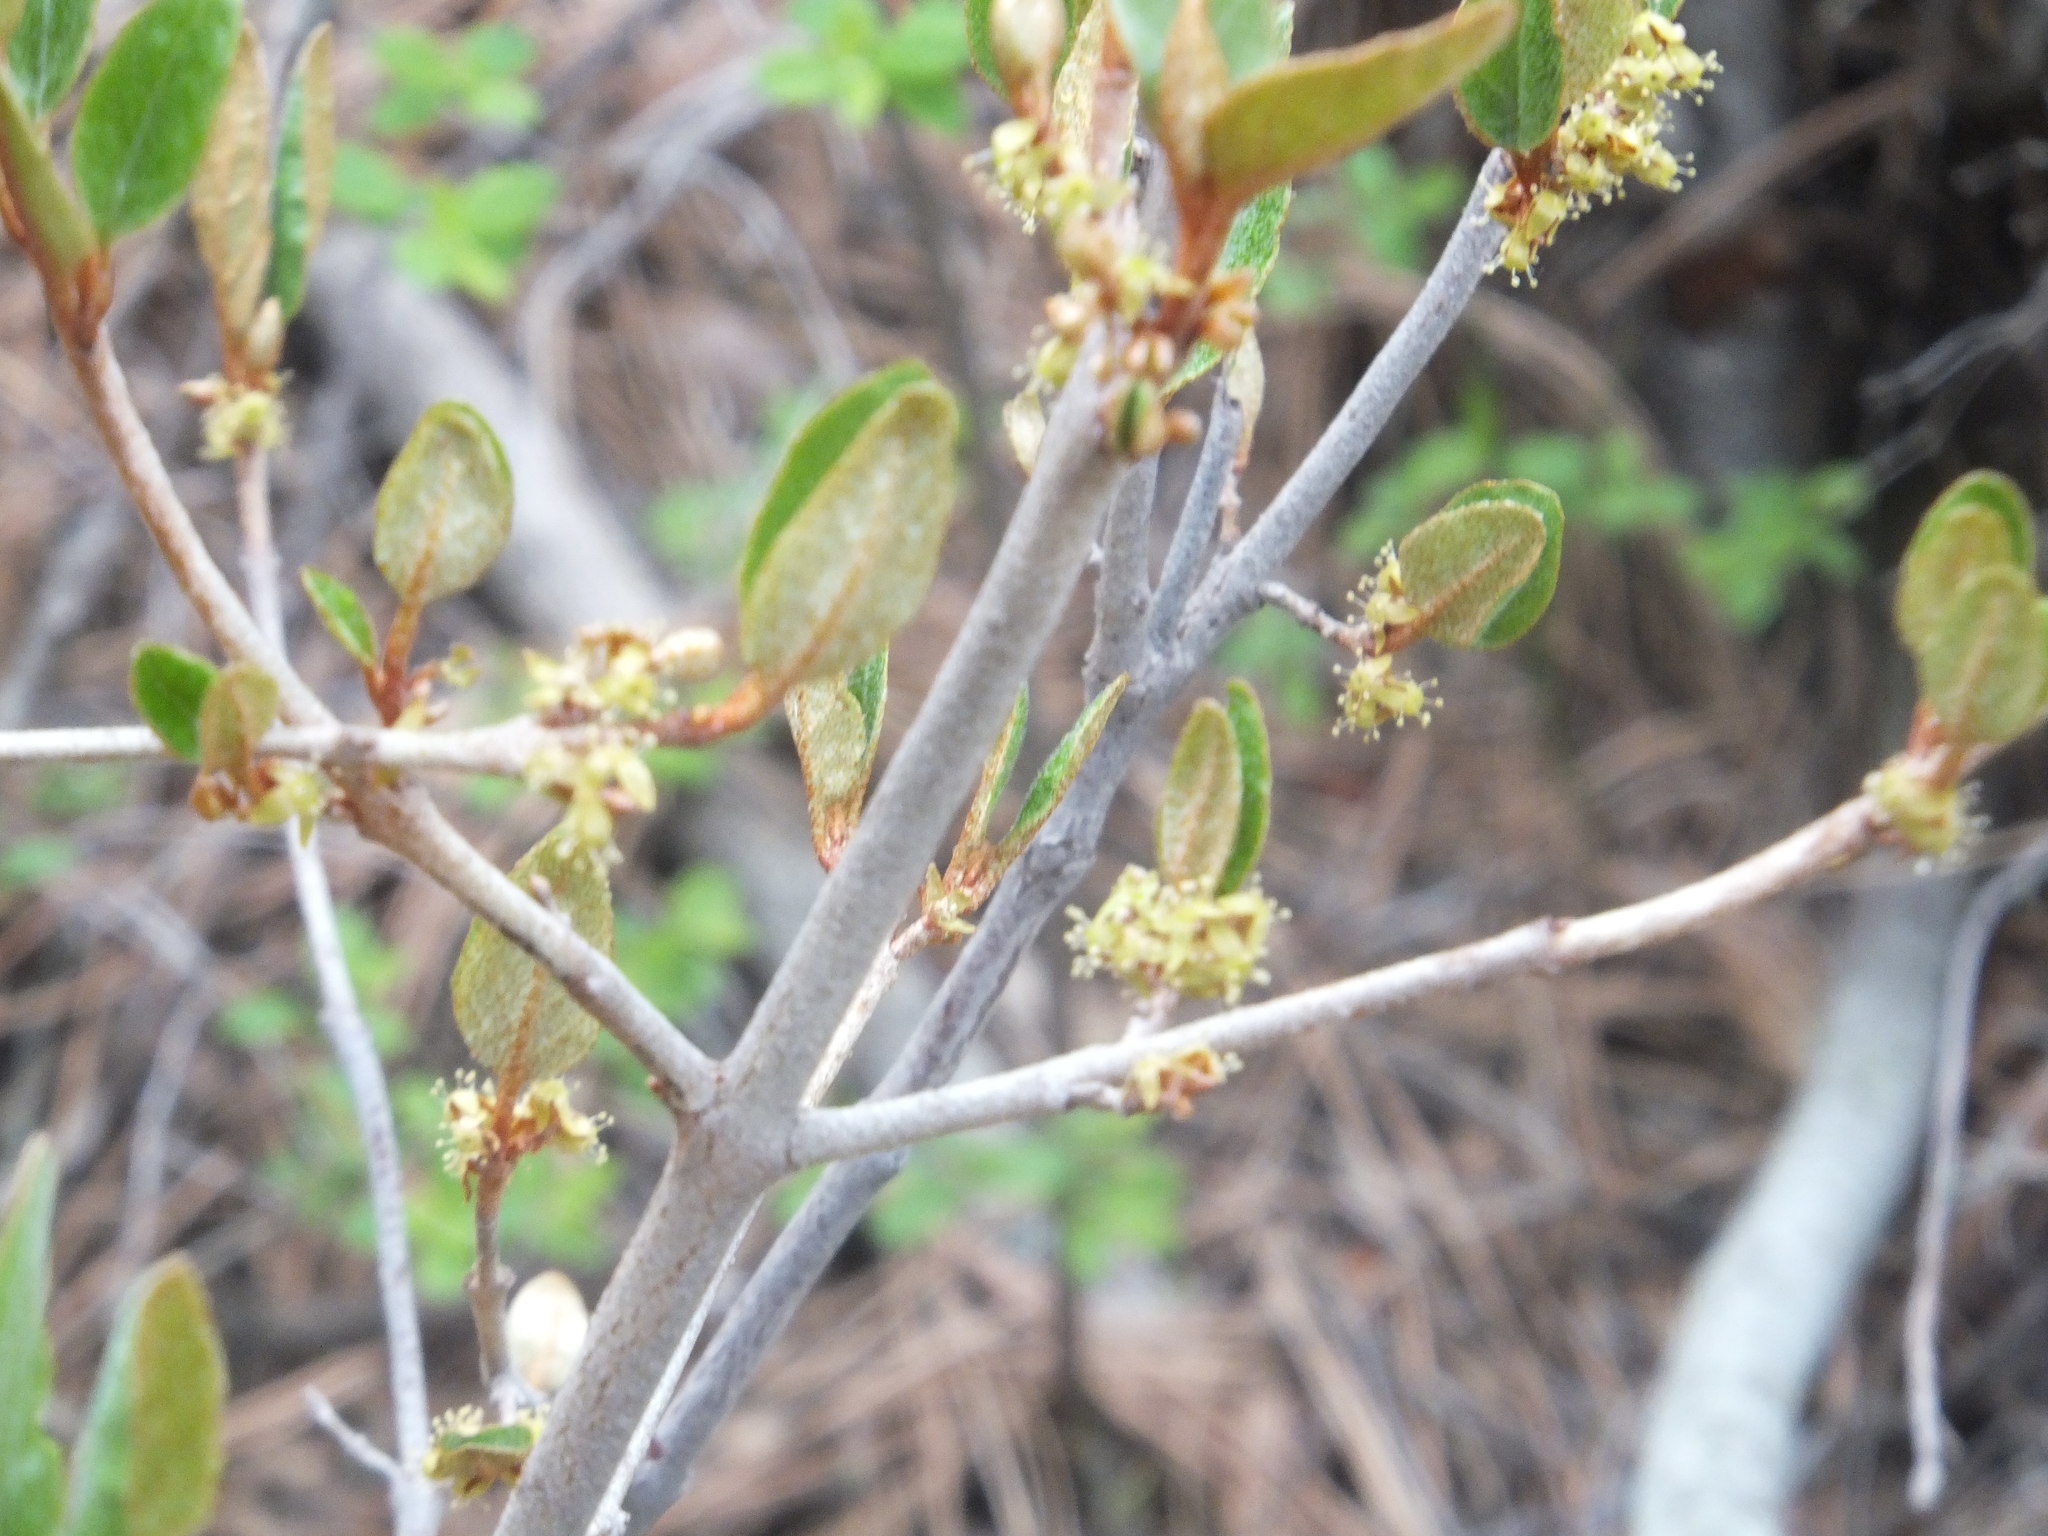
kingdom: Plantae
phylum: Tracheophyta
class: Magnoliopsida
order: Rosales
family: Elaeagnaceae
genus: Shepherdia
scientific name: Shepherdia canadensis
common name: Soapberry
